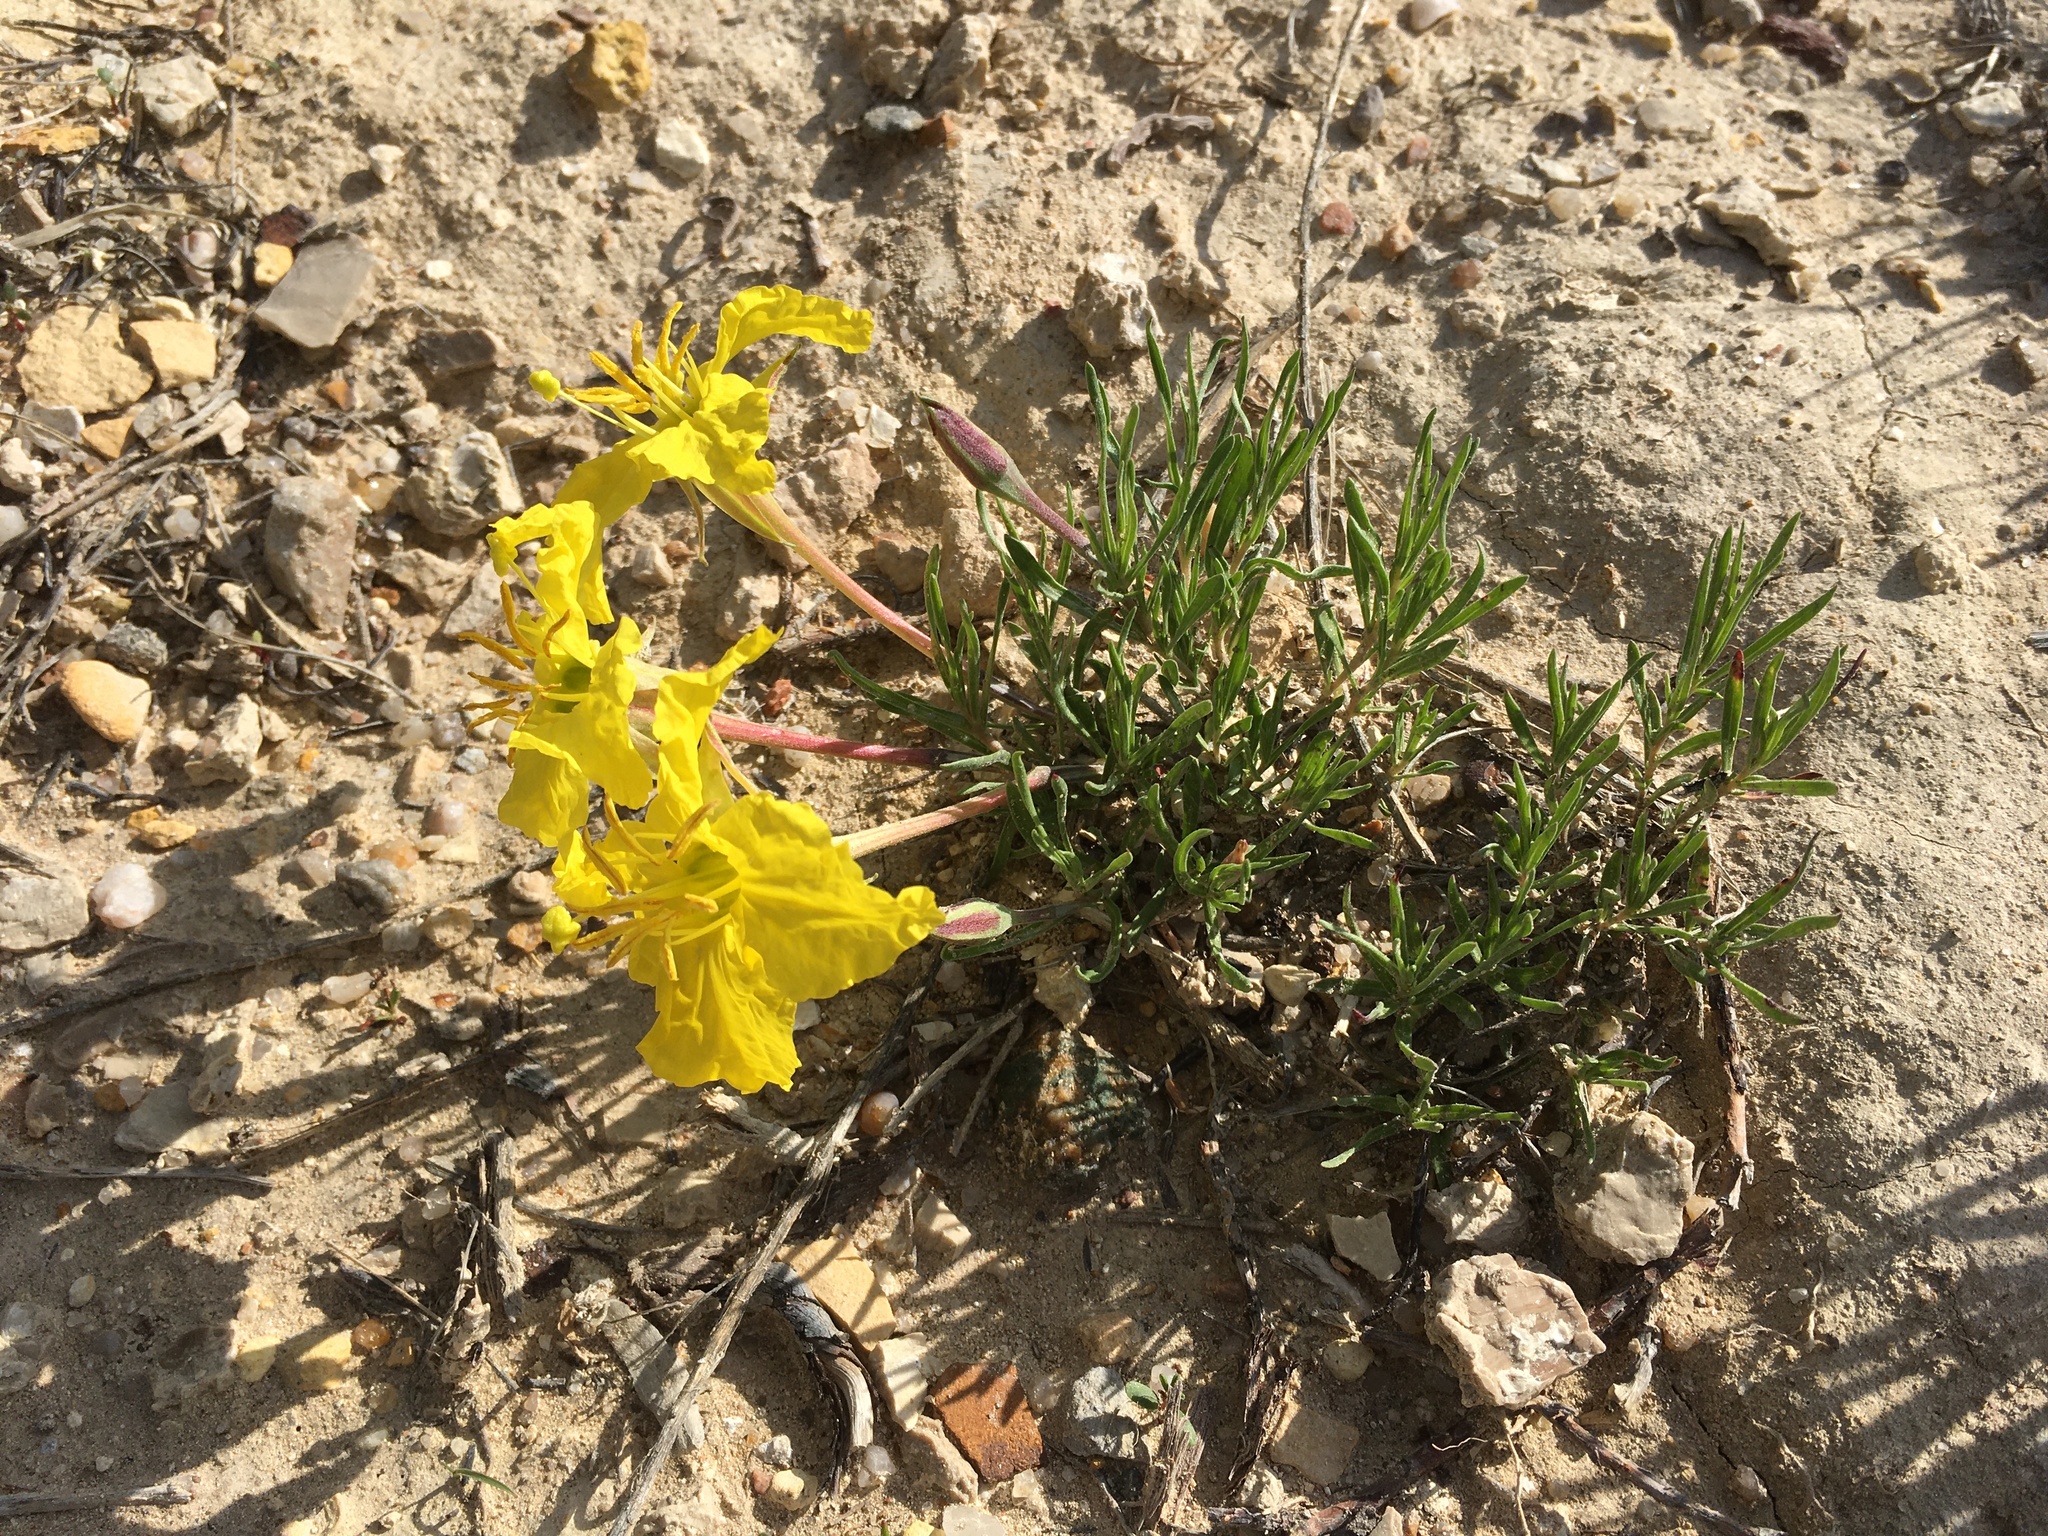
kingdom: Plantae
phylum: Tracheophyta
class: Magnoliopsida
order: Myrtales
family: Onagraceae
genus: Oenothera
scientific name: Oenothera lavandulifolia
